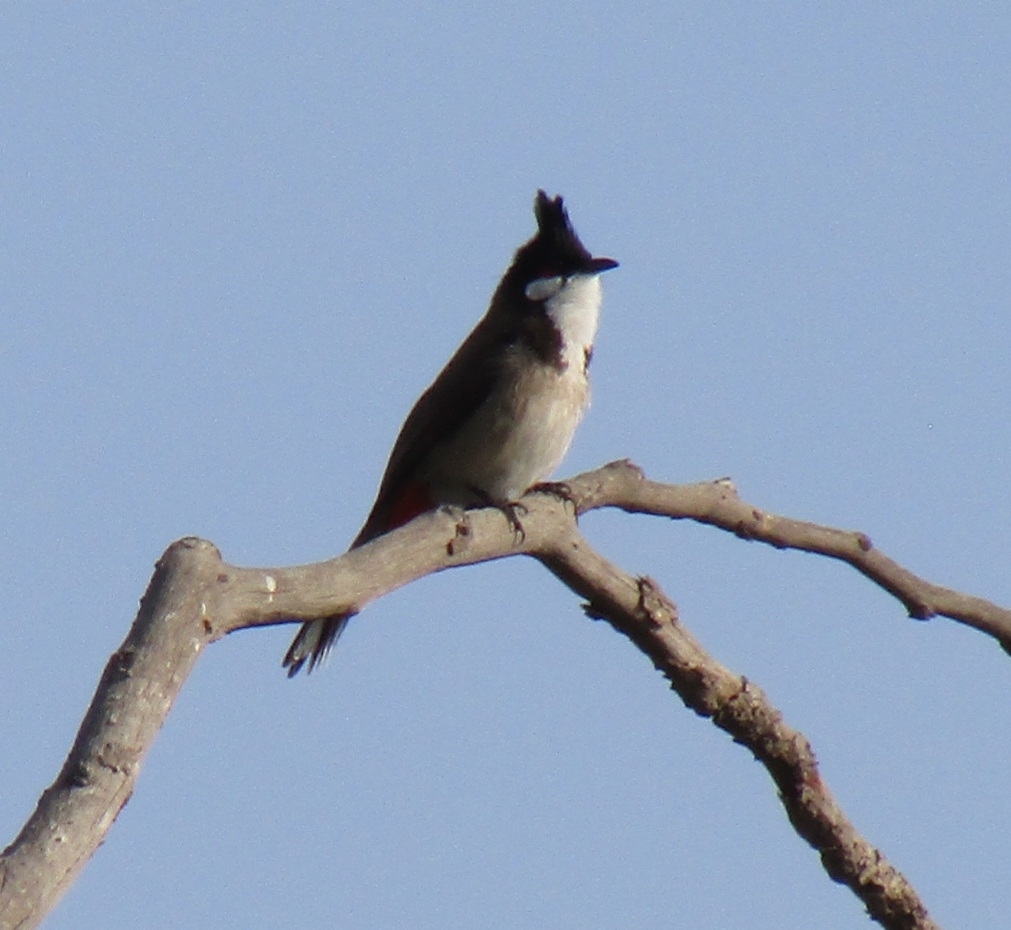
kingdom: Animalia
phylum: Chordata
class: Aves
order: Passeriformes
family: Pycnonotidae
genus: Pycnonotus
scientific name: Pycnonotus jocosus
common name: Red-whiskered bulbul
